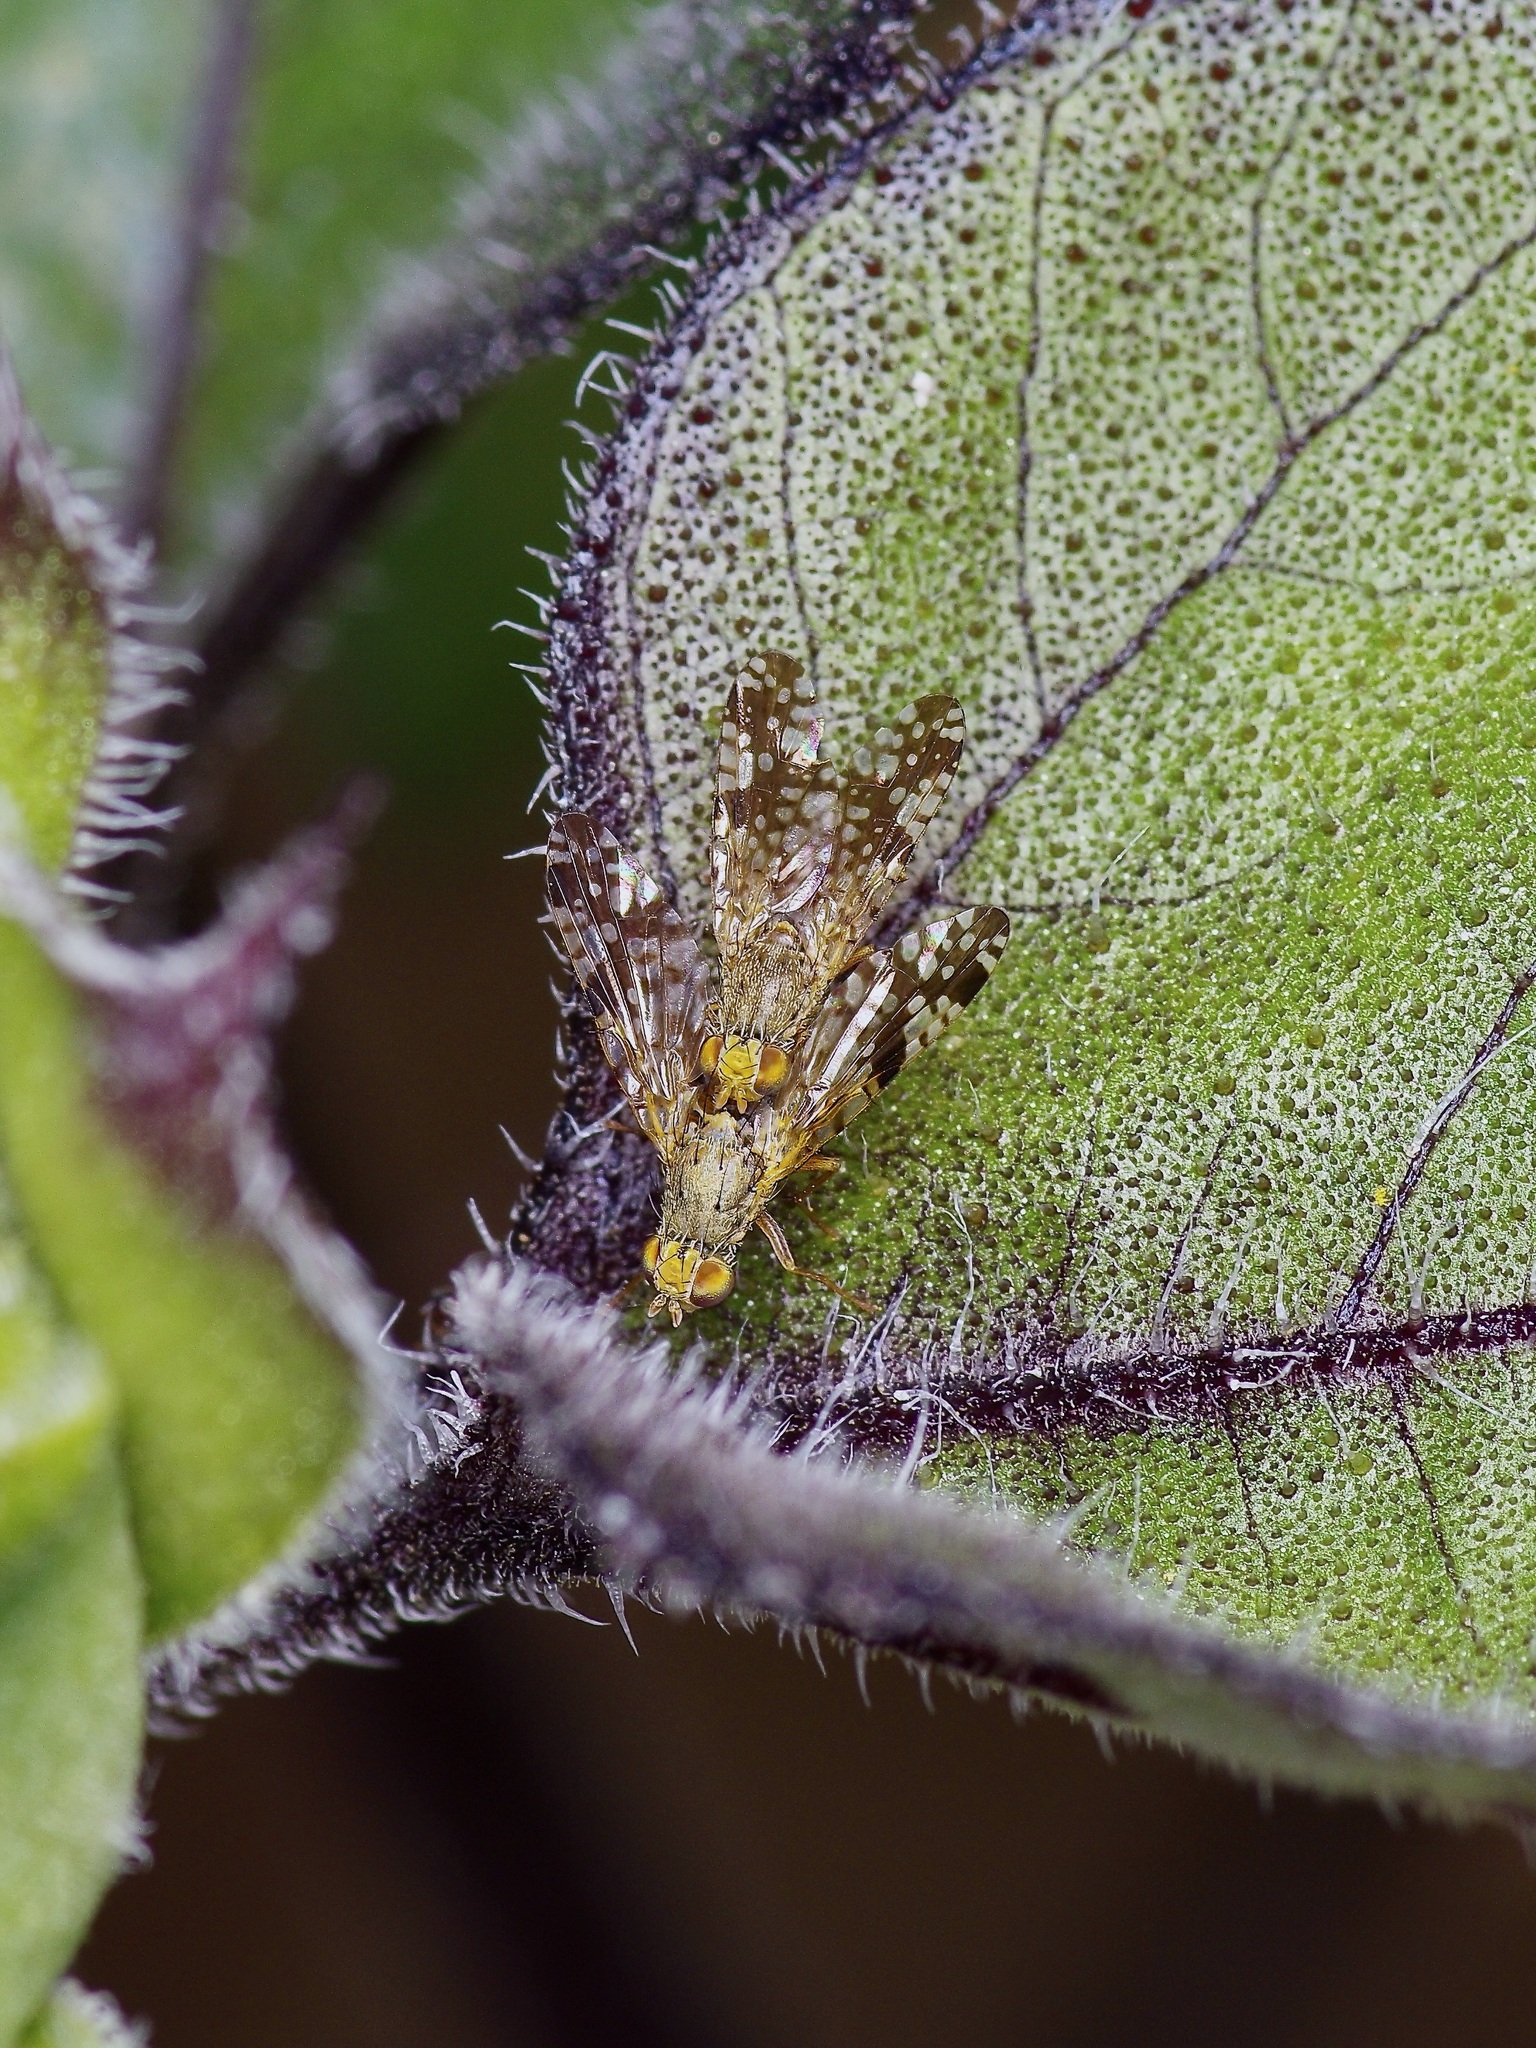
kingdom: Animalia
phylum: Arthropoda
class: Insecta
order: Diptera
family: Tephritidae
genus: Neotephritis
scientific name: Neotephritis finalis
